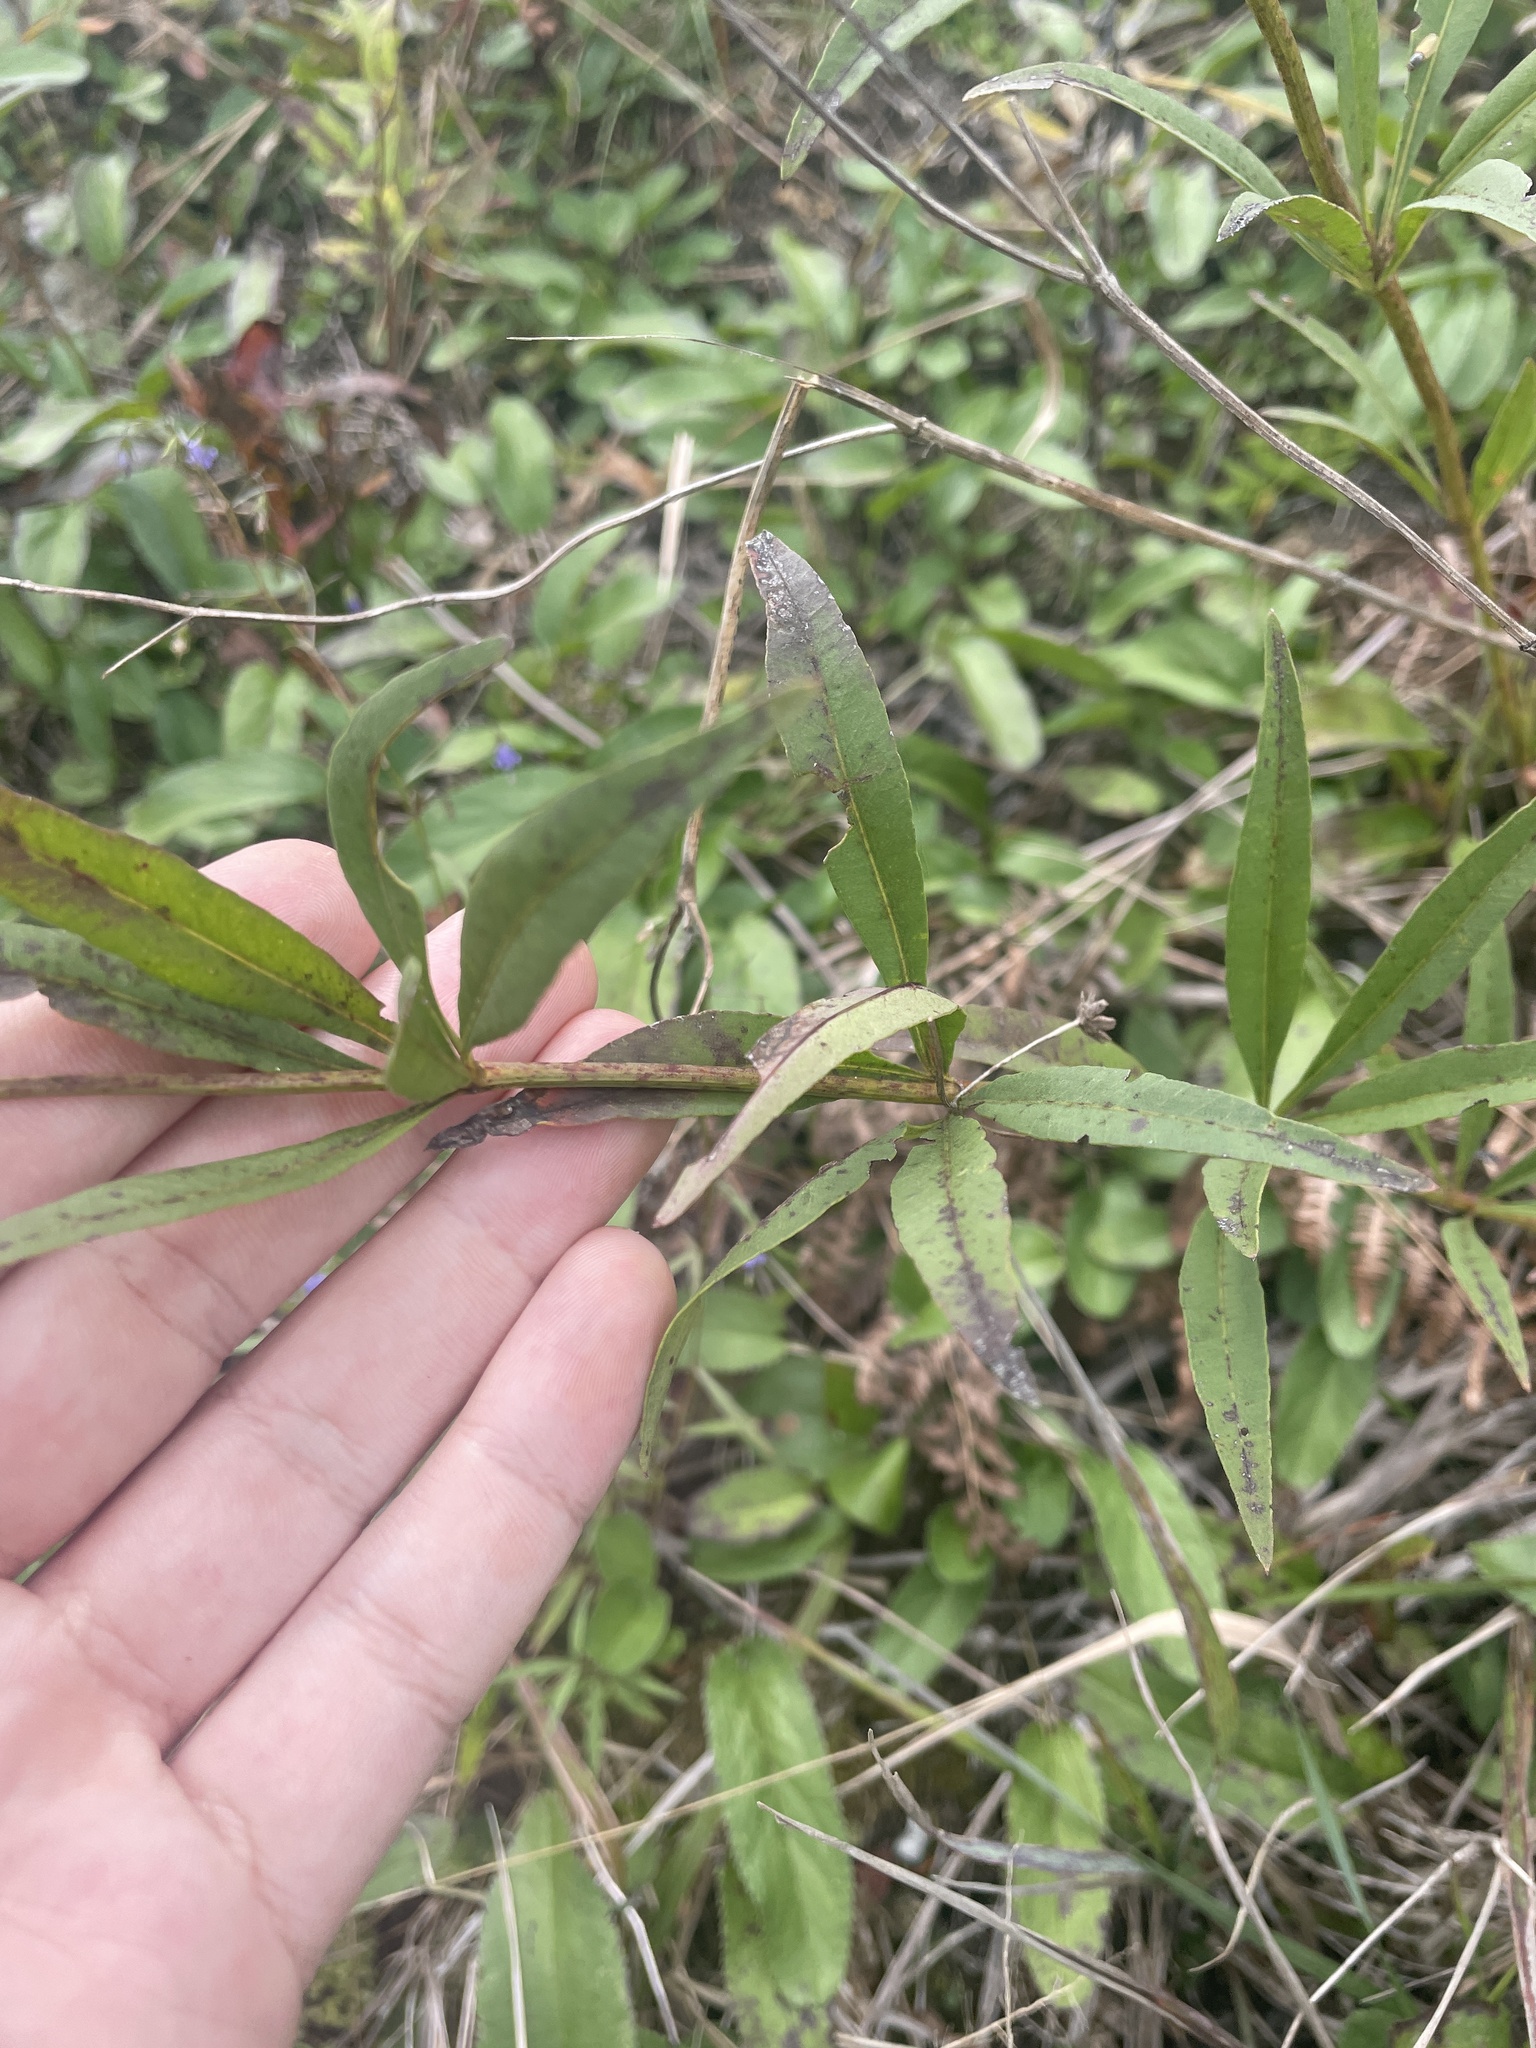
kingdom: Plantae
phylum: Tracheophyta
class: Magnoliopsida
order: Asterales
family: Asteraceae
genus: Coreopsis
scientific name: Coreopsis major
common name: Forest tickseed
